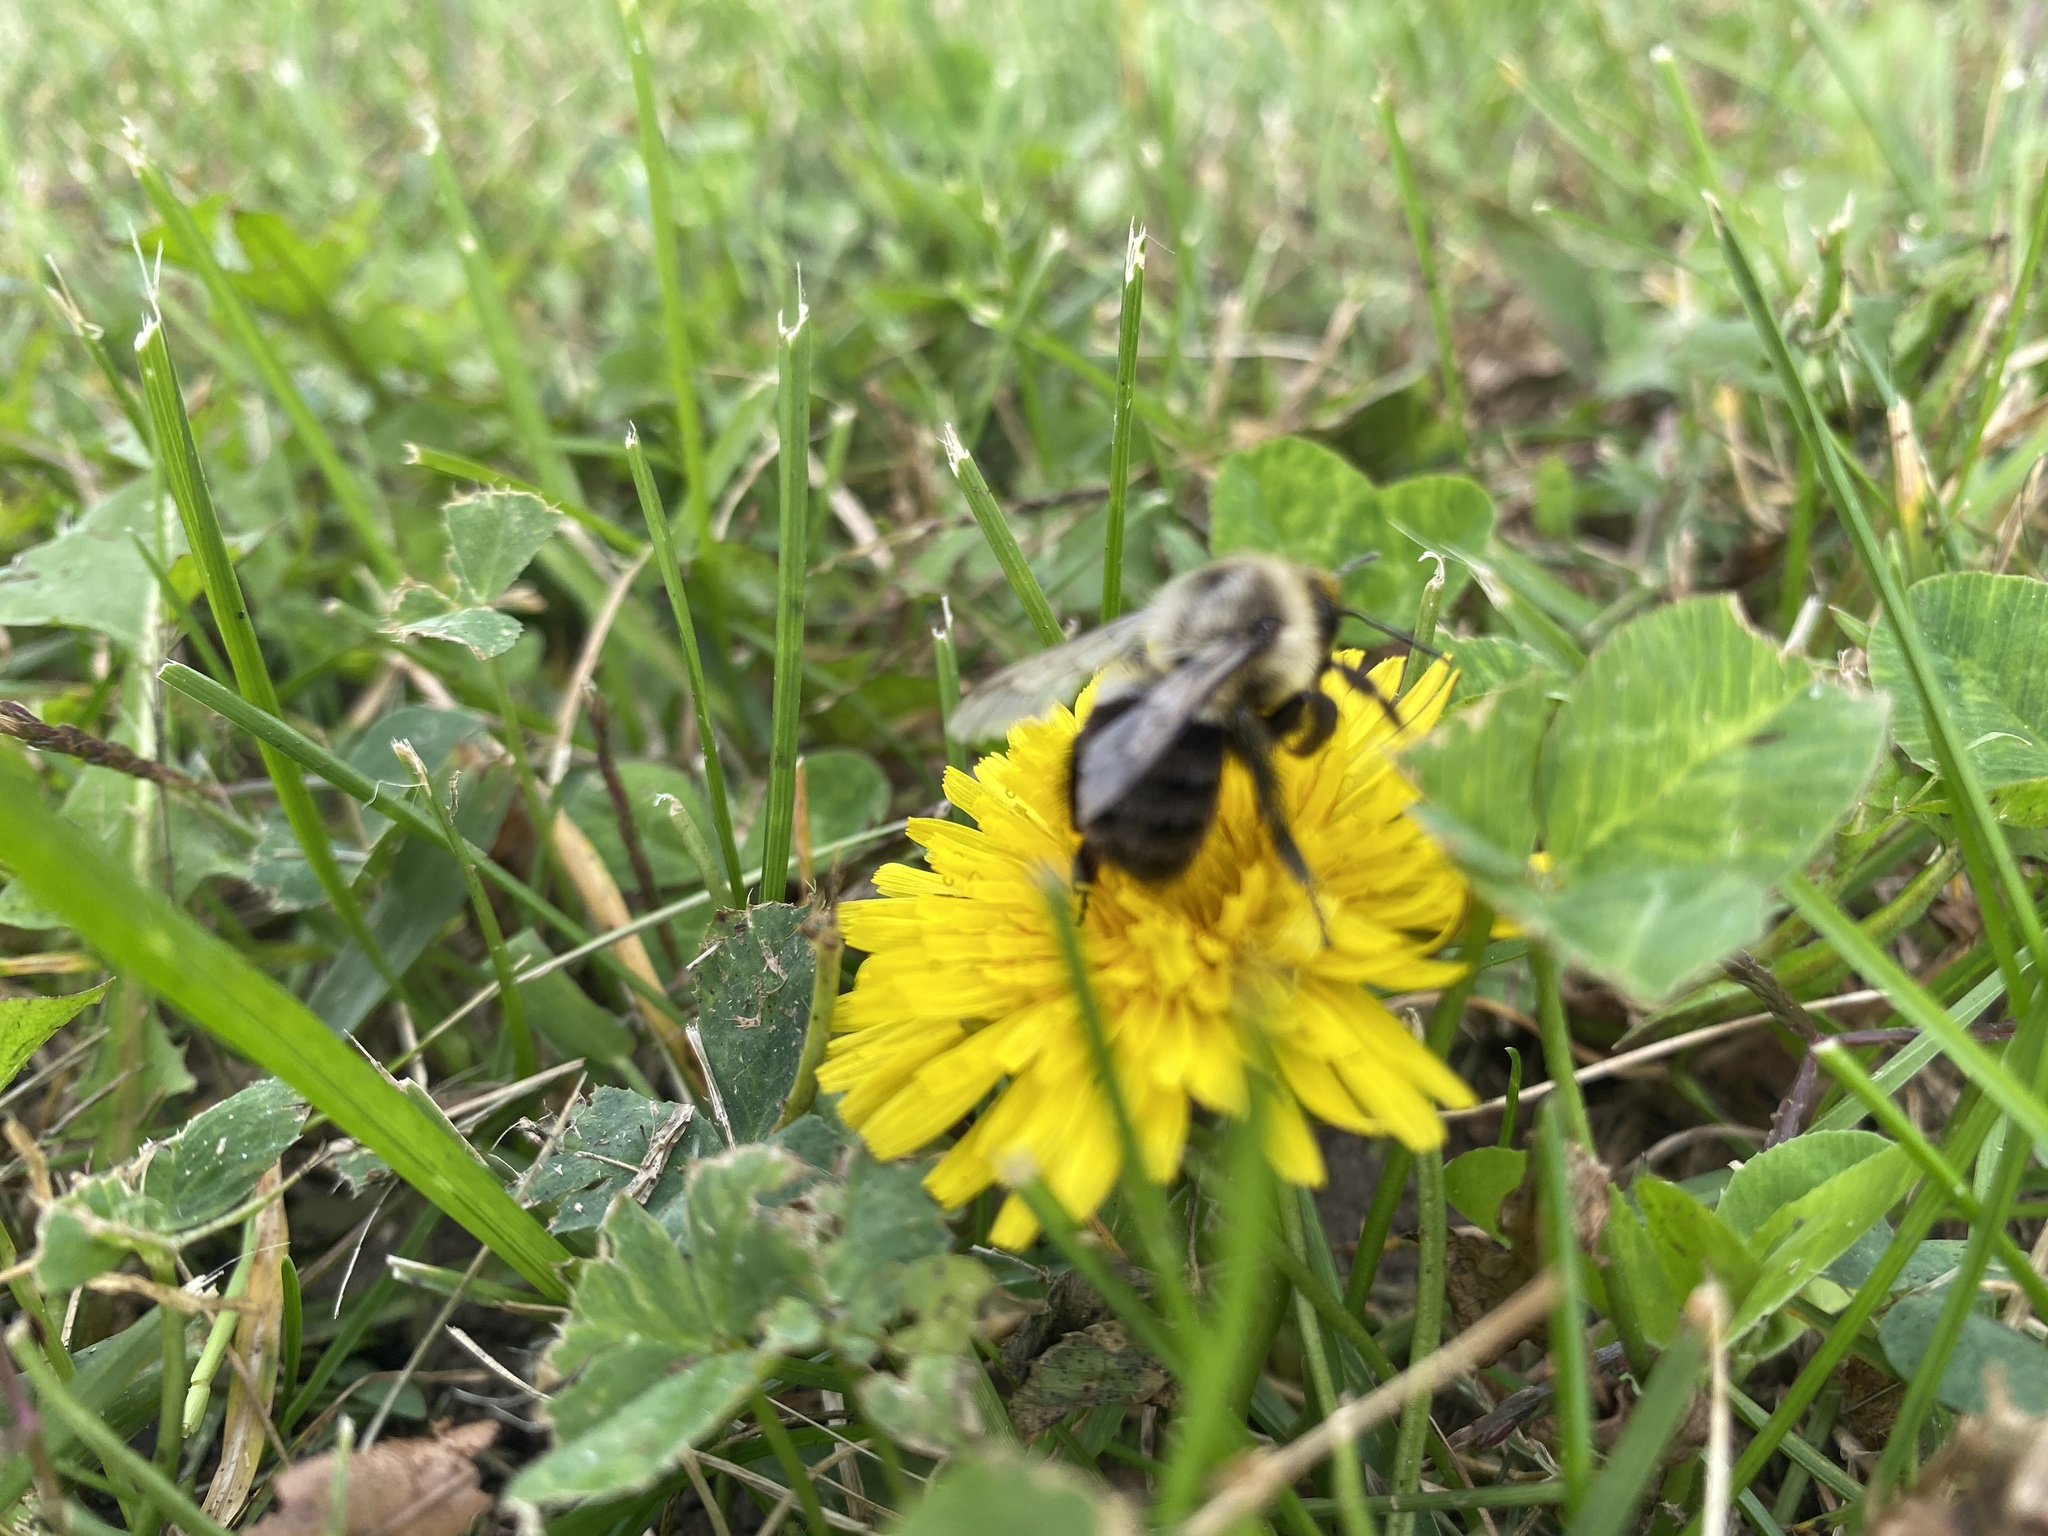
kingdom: Animalia
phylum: Arthropoda
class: Insecta
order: Hymenoptera
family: Apidae
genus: Bombus
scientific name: Bombus impatiens
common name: Common eastern bumble bee
